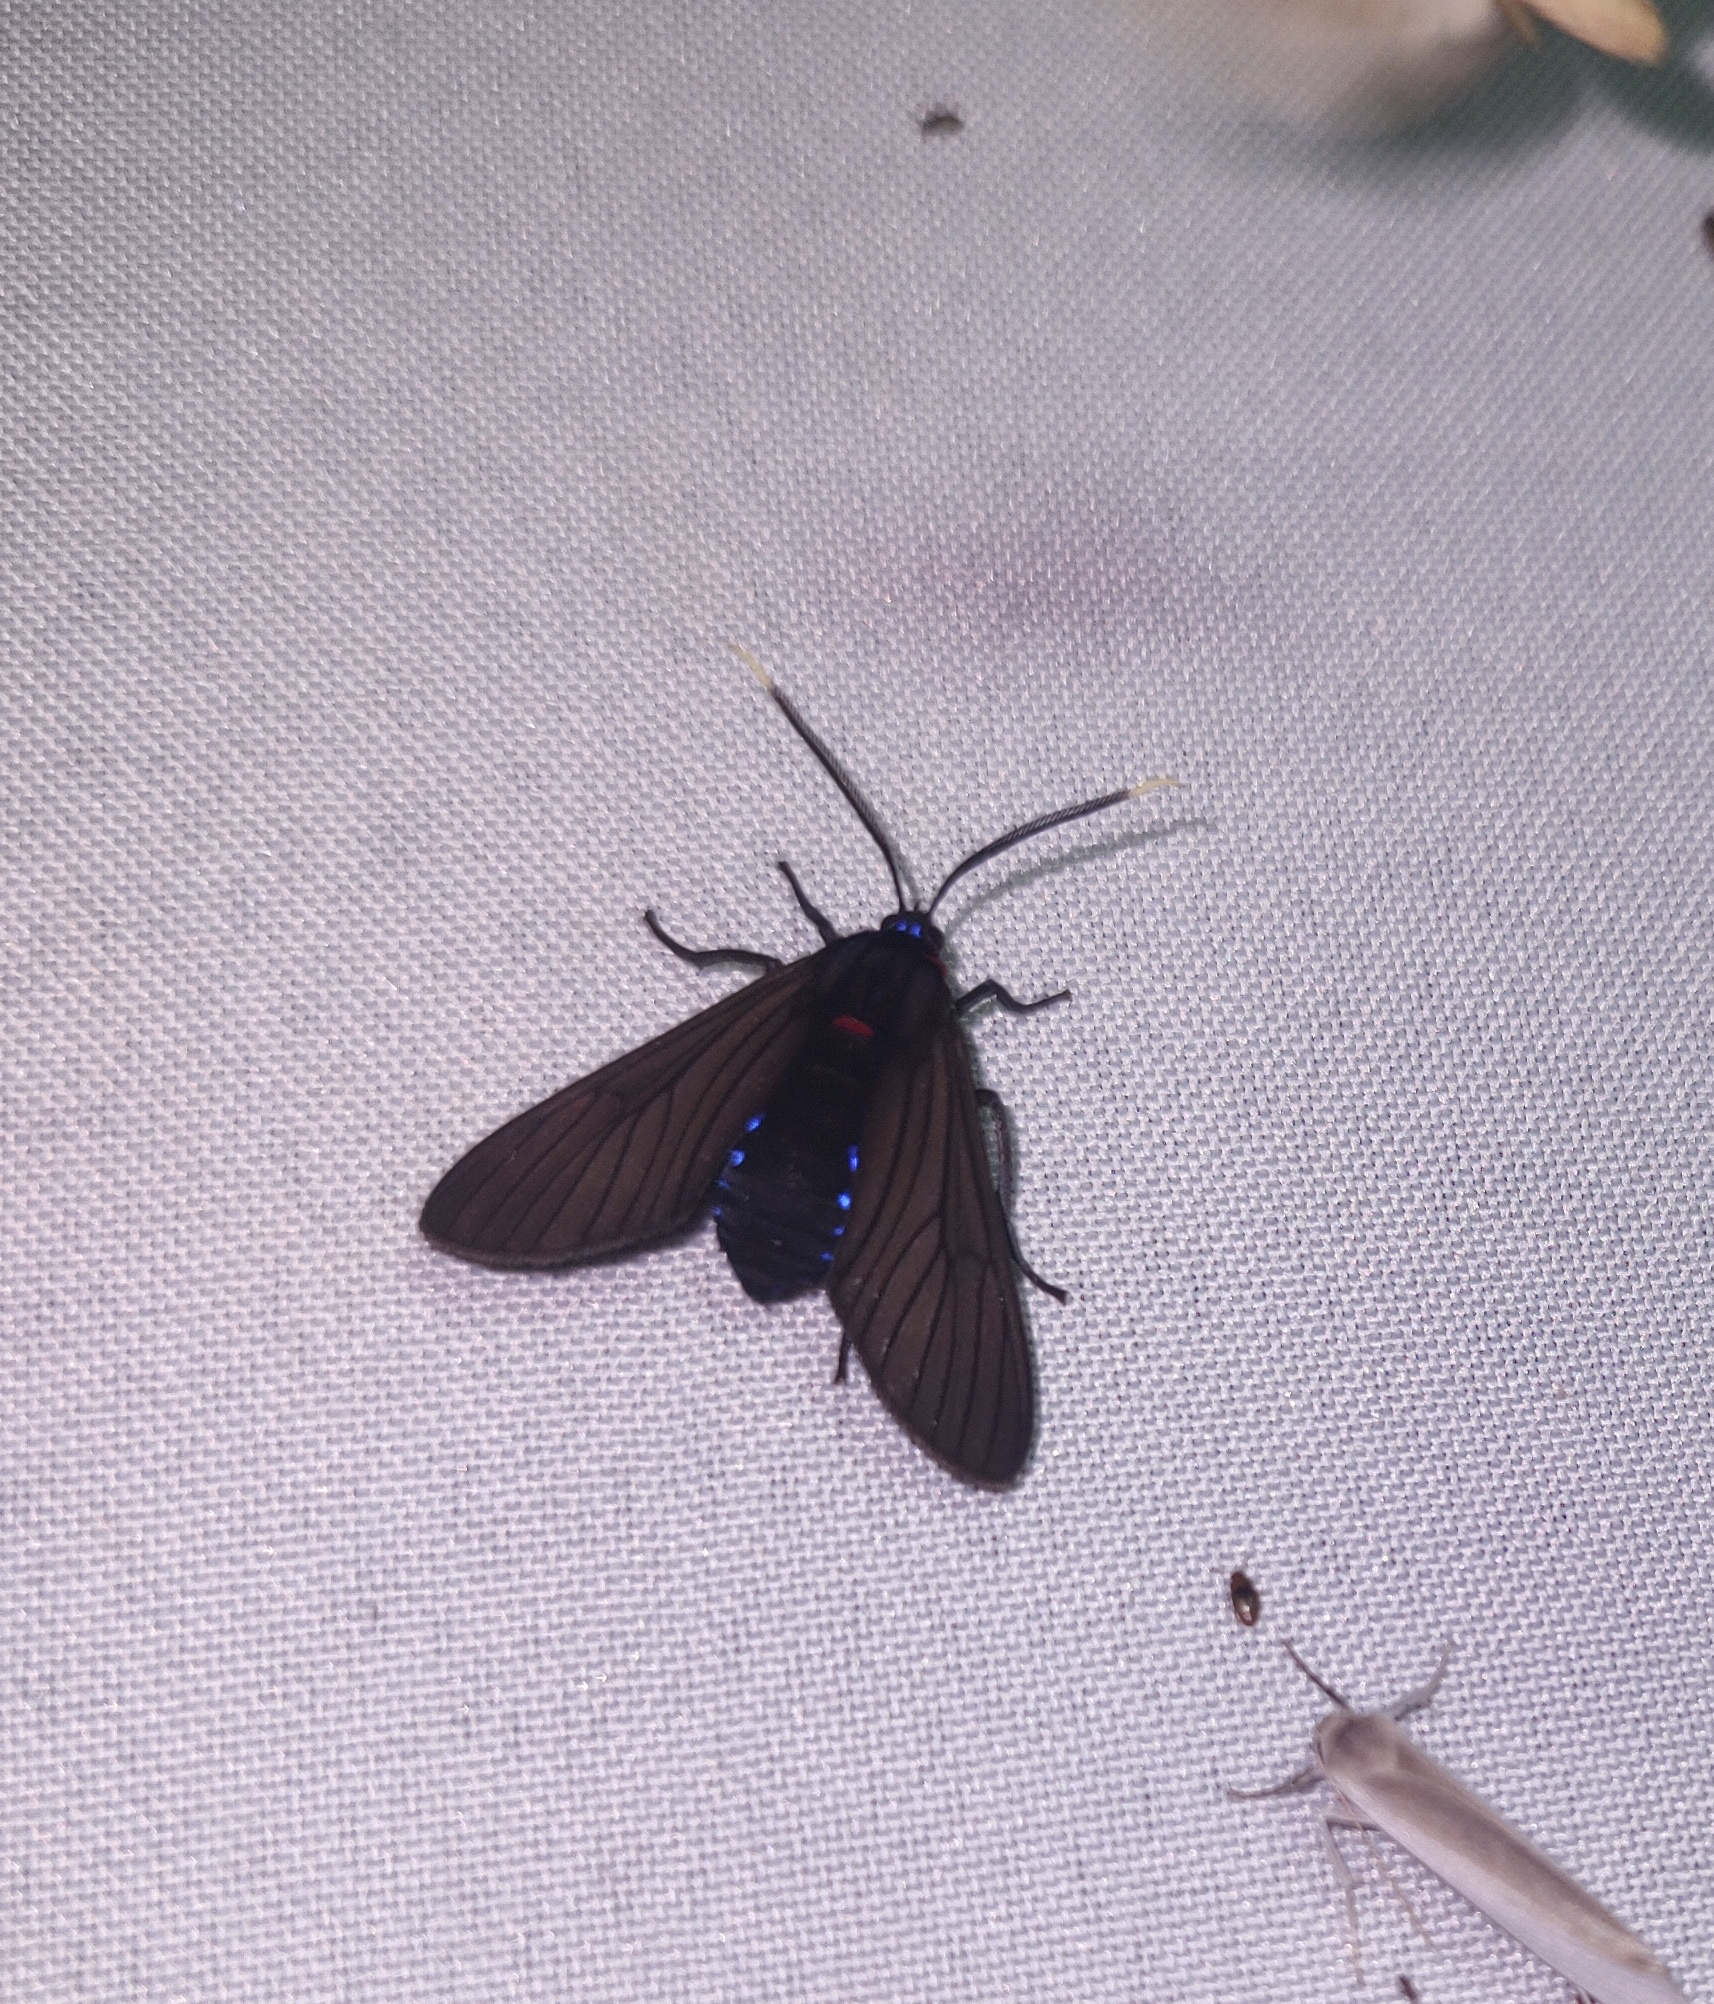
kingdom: Animalia
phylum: Arthropoda
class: Insecta
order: Lepidoptera
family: Erebidae
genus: Saurita
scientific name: Saurita erythroguia
